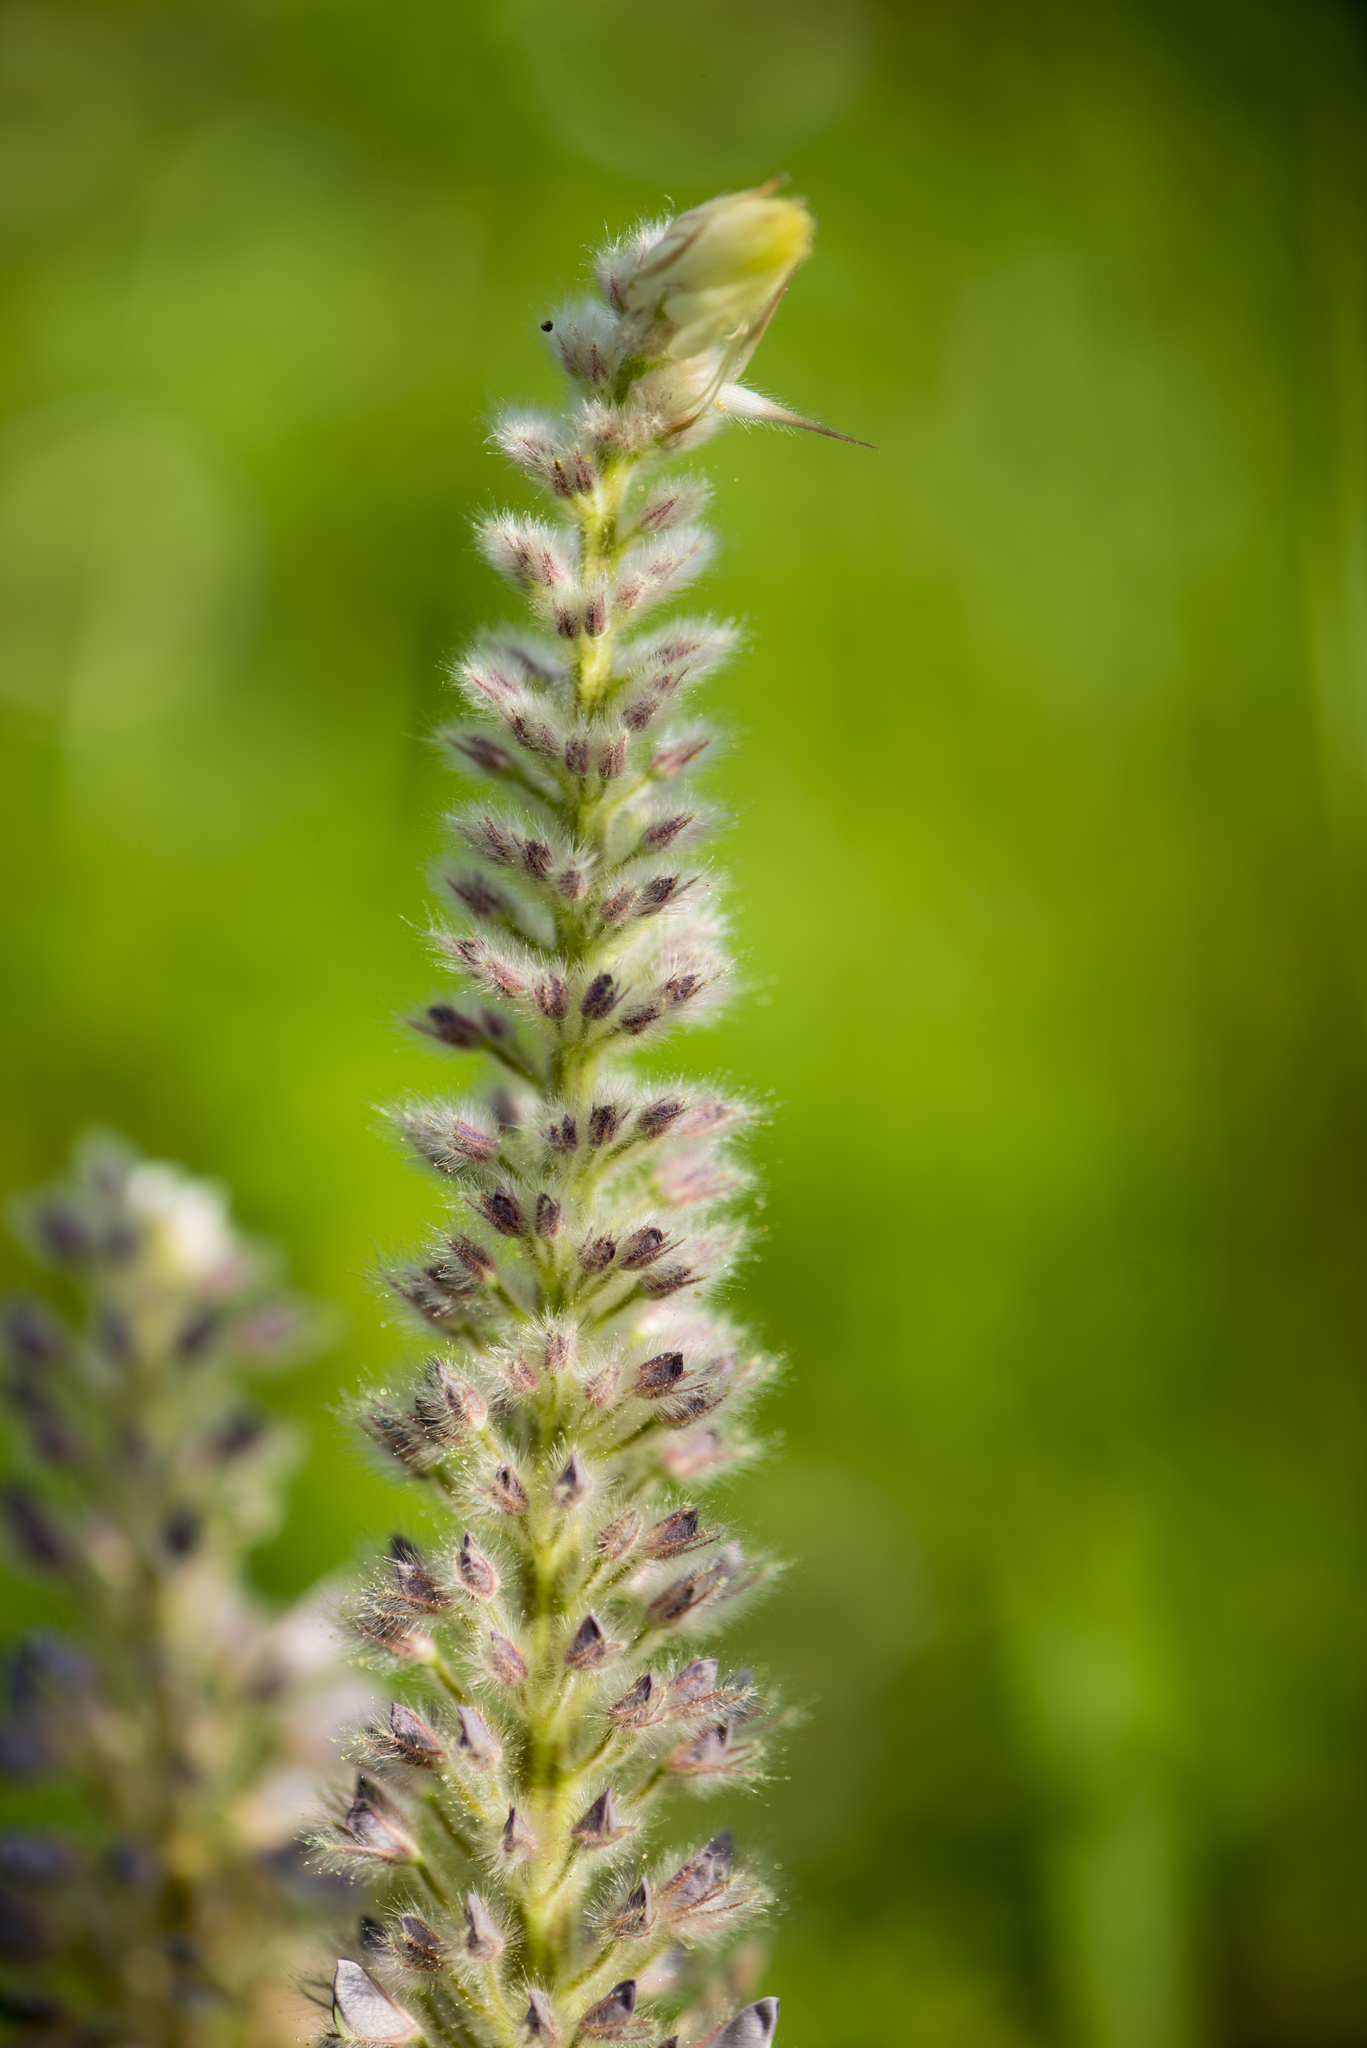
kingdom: Plantae
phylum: Tracheophyta
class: Magnoliopsida
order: Fabales
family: Fabaceae
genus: Uraria
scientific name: Uraria crinita
